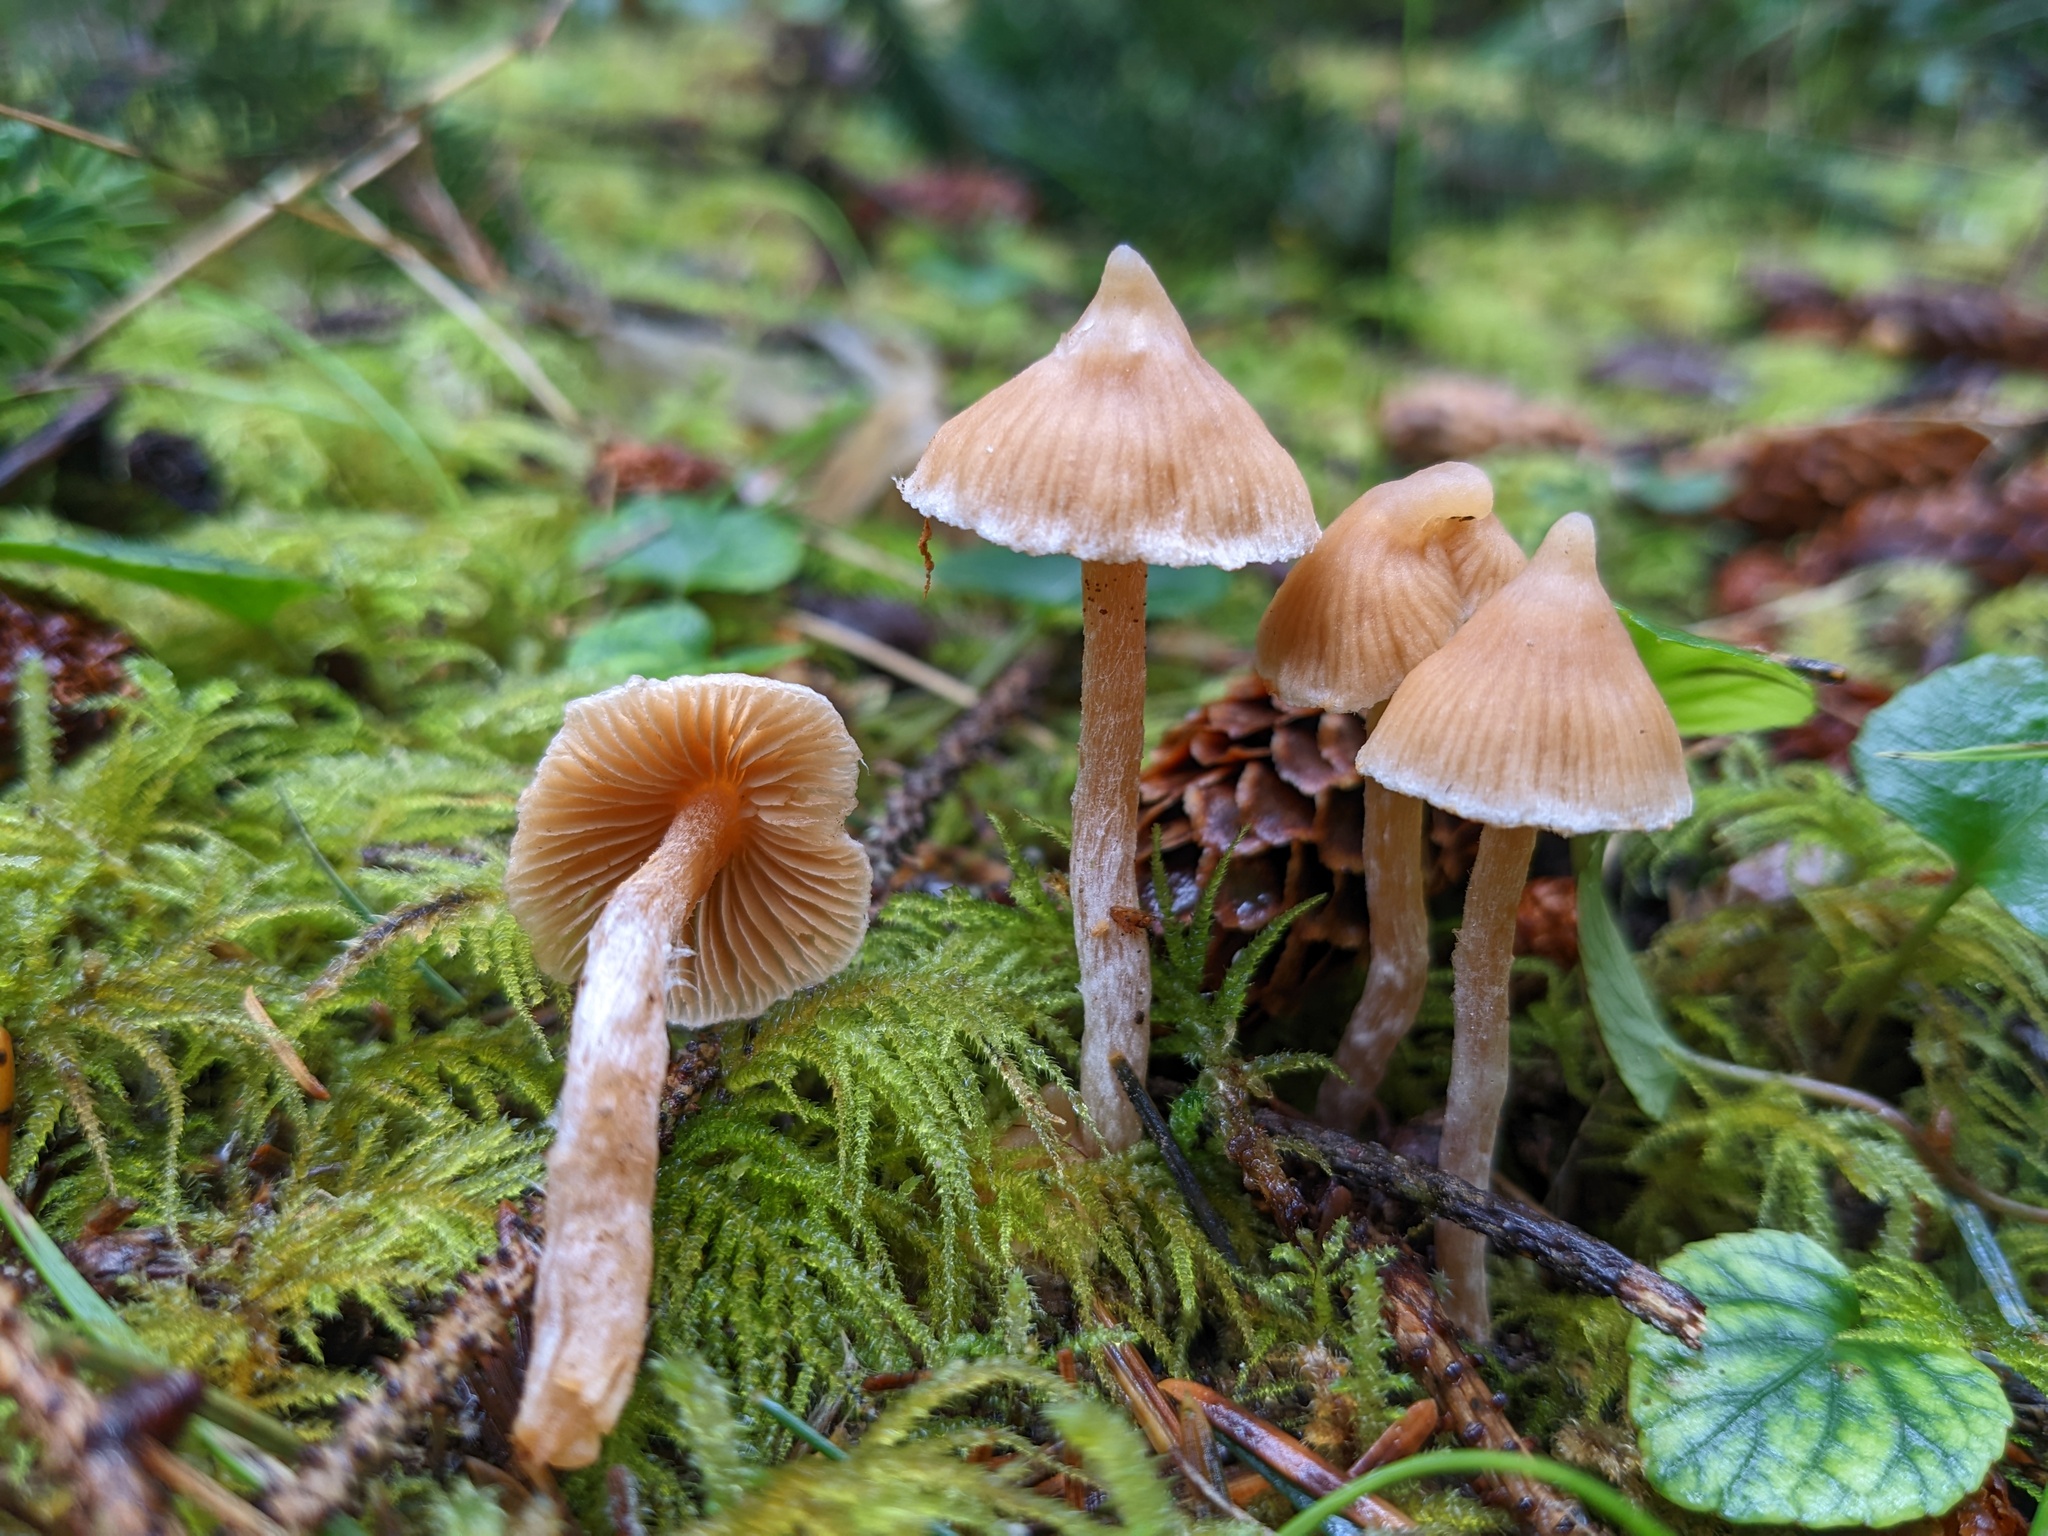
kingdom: Fungi
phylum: Basidiomycota
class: Agaricomycetes
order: Agaricales
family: Cortinariaceae
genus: Cortinarius
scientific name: Cortinarius acutus
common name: Peaked webcap
